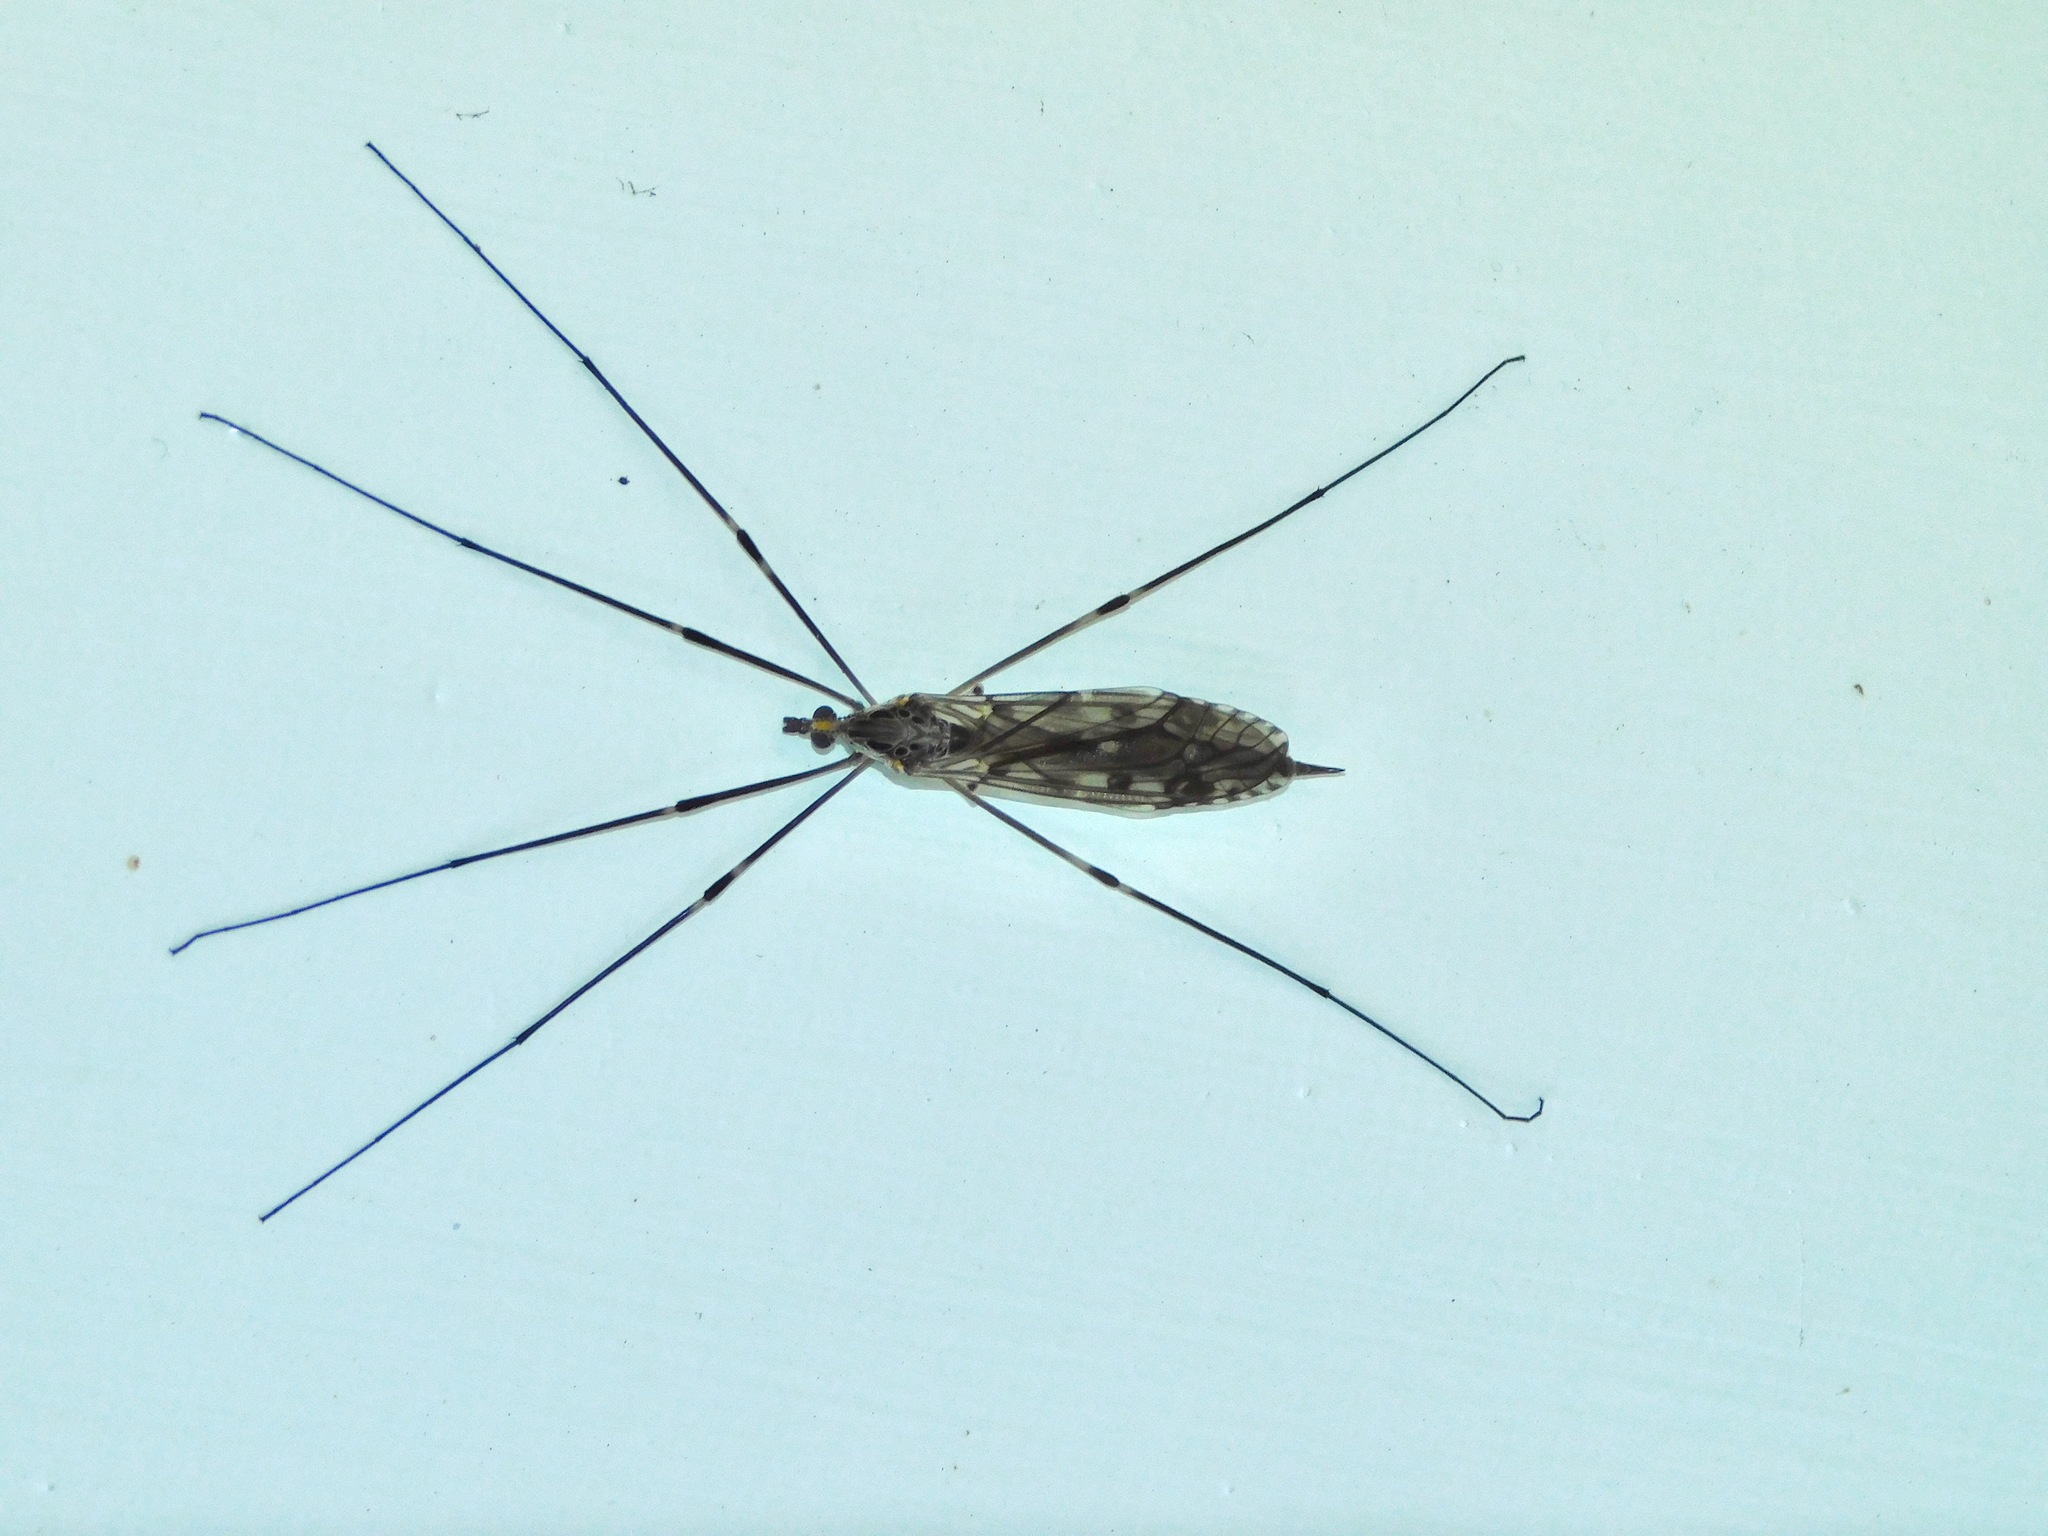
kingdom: Animalia
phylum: Arthropoda
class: Insecta
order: Diptera
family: Tipulidae
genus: Tipula
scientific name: Tipula abdominalis
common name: Giant crane fly
